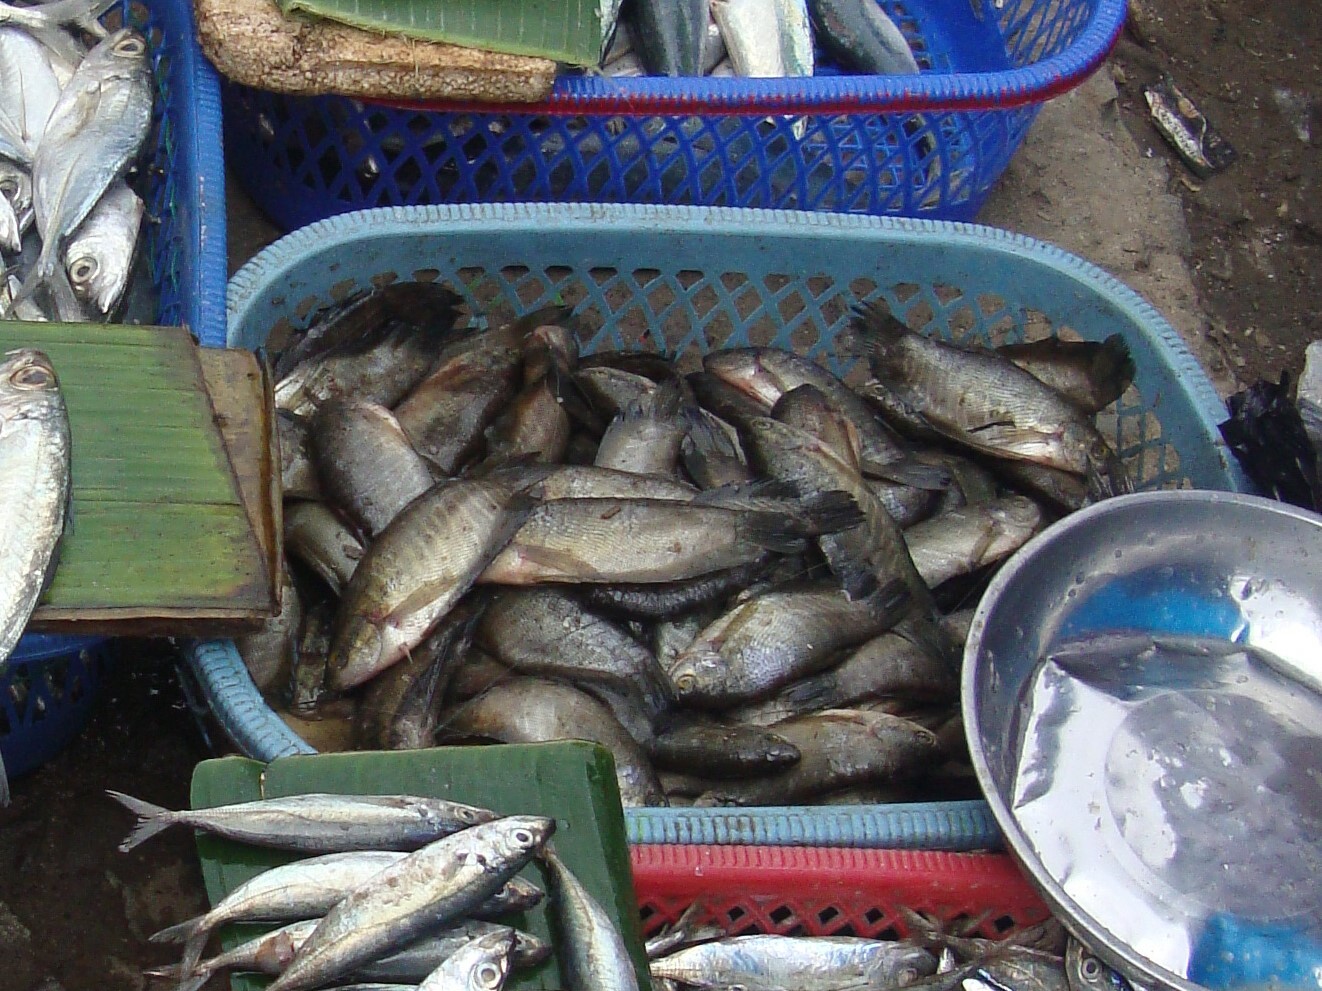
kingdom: Animalia
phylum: Chordata
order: Perciformes
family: Osphronemidae
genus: Trichopodus
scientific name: Trichopodus pectoralis
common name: Snakeskin gourami
